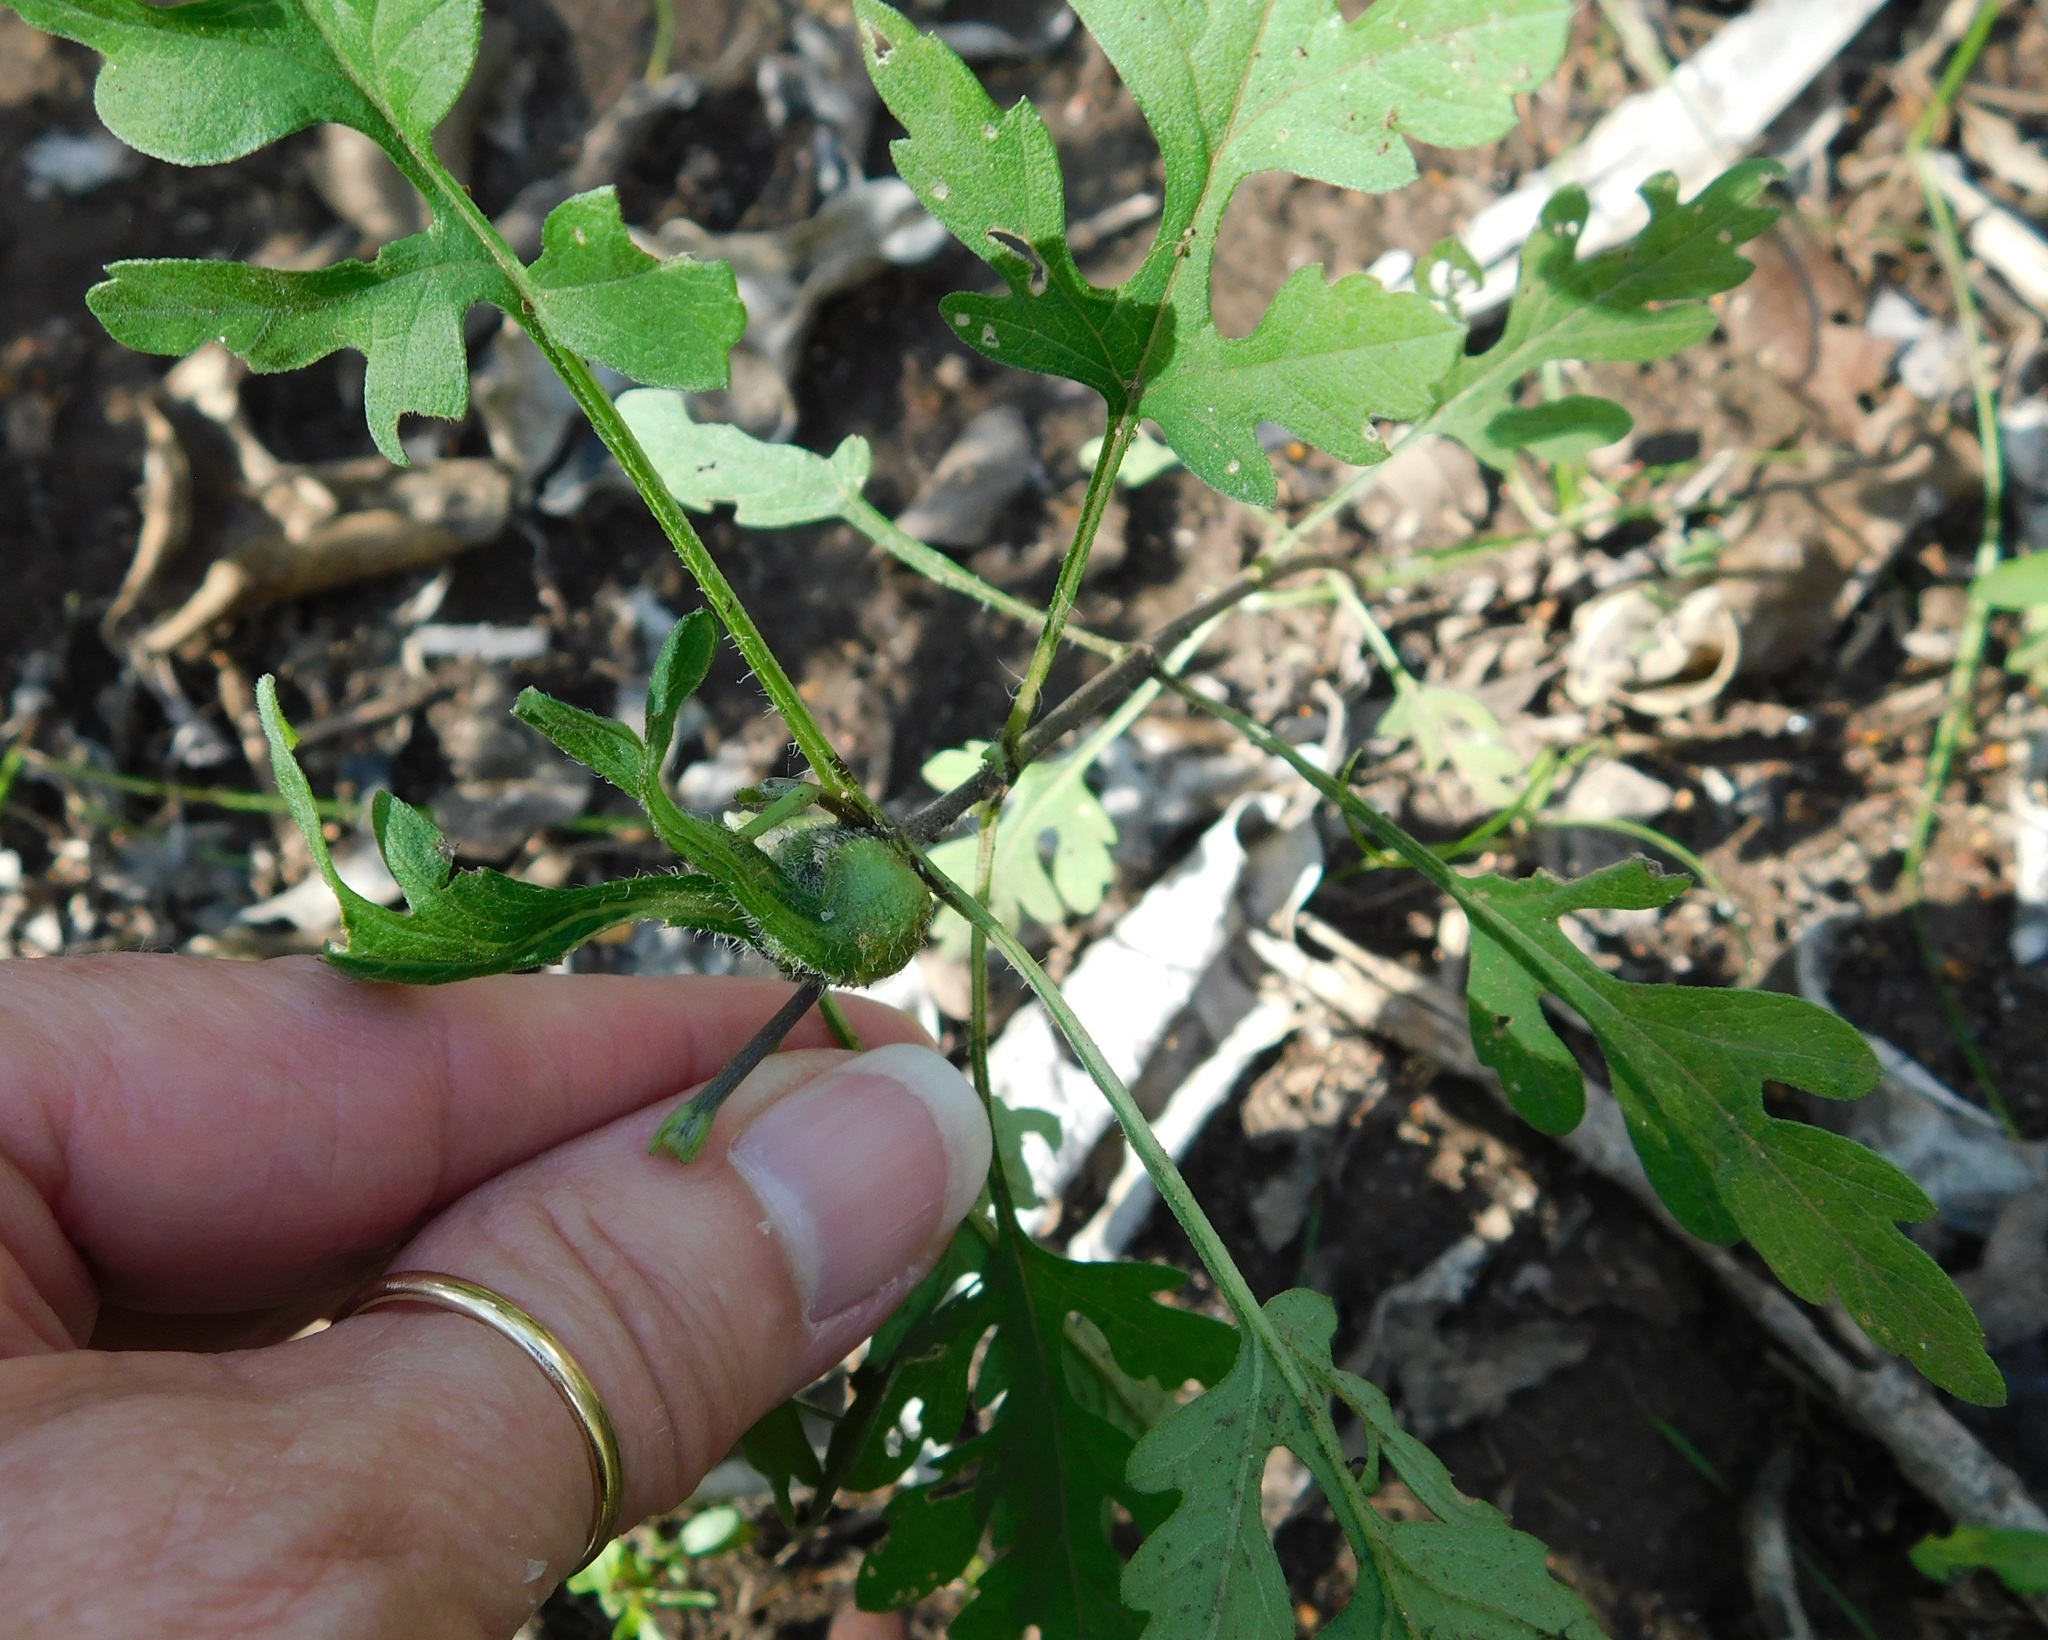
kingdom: Plantae
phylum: Tracheophyta
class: Magnoliopsida
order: Asterales
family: Asteraceae
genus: Ambrosia
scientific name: Ambrosia artemisiifolia
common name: Annual ragweed
